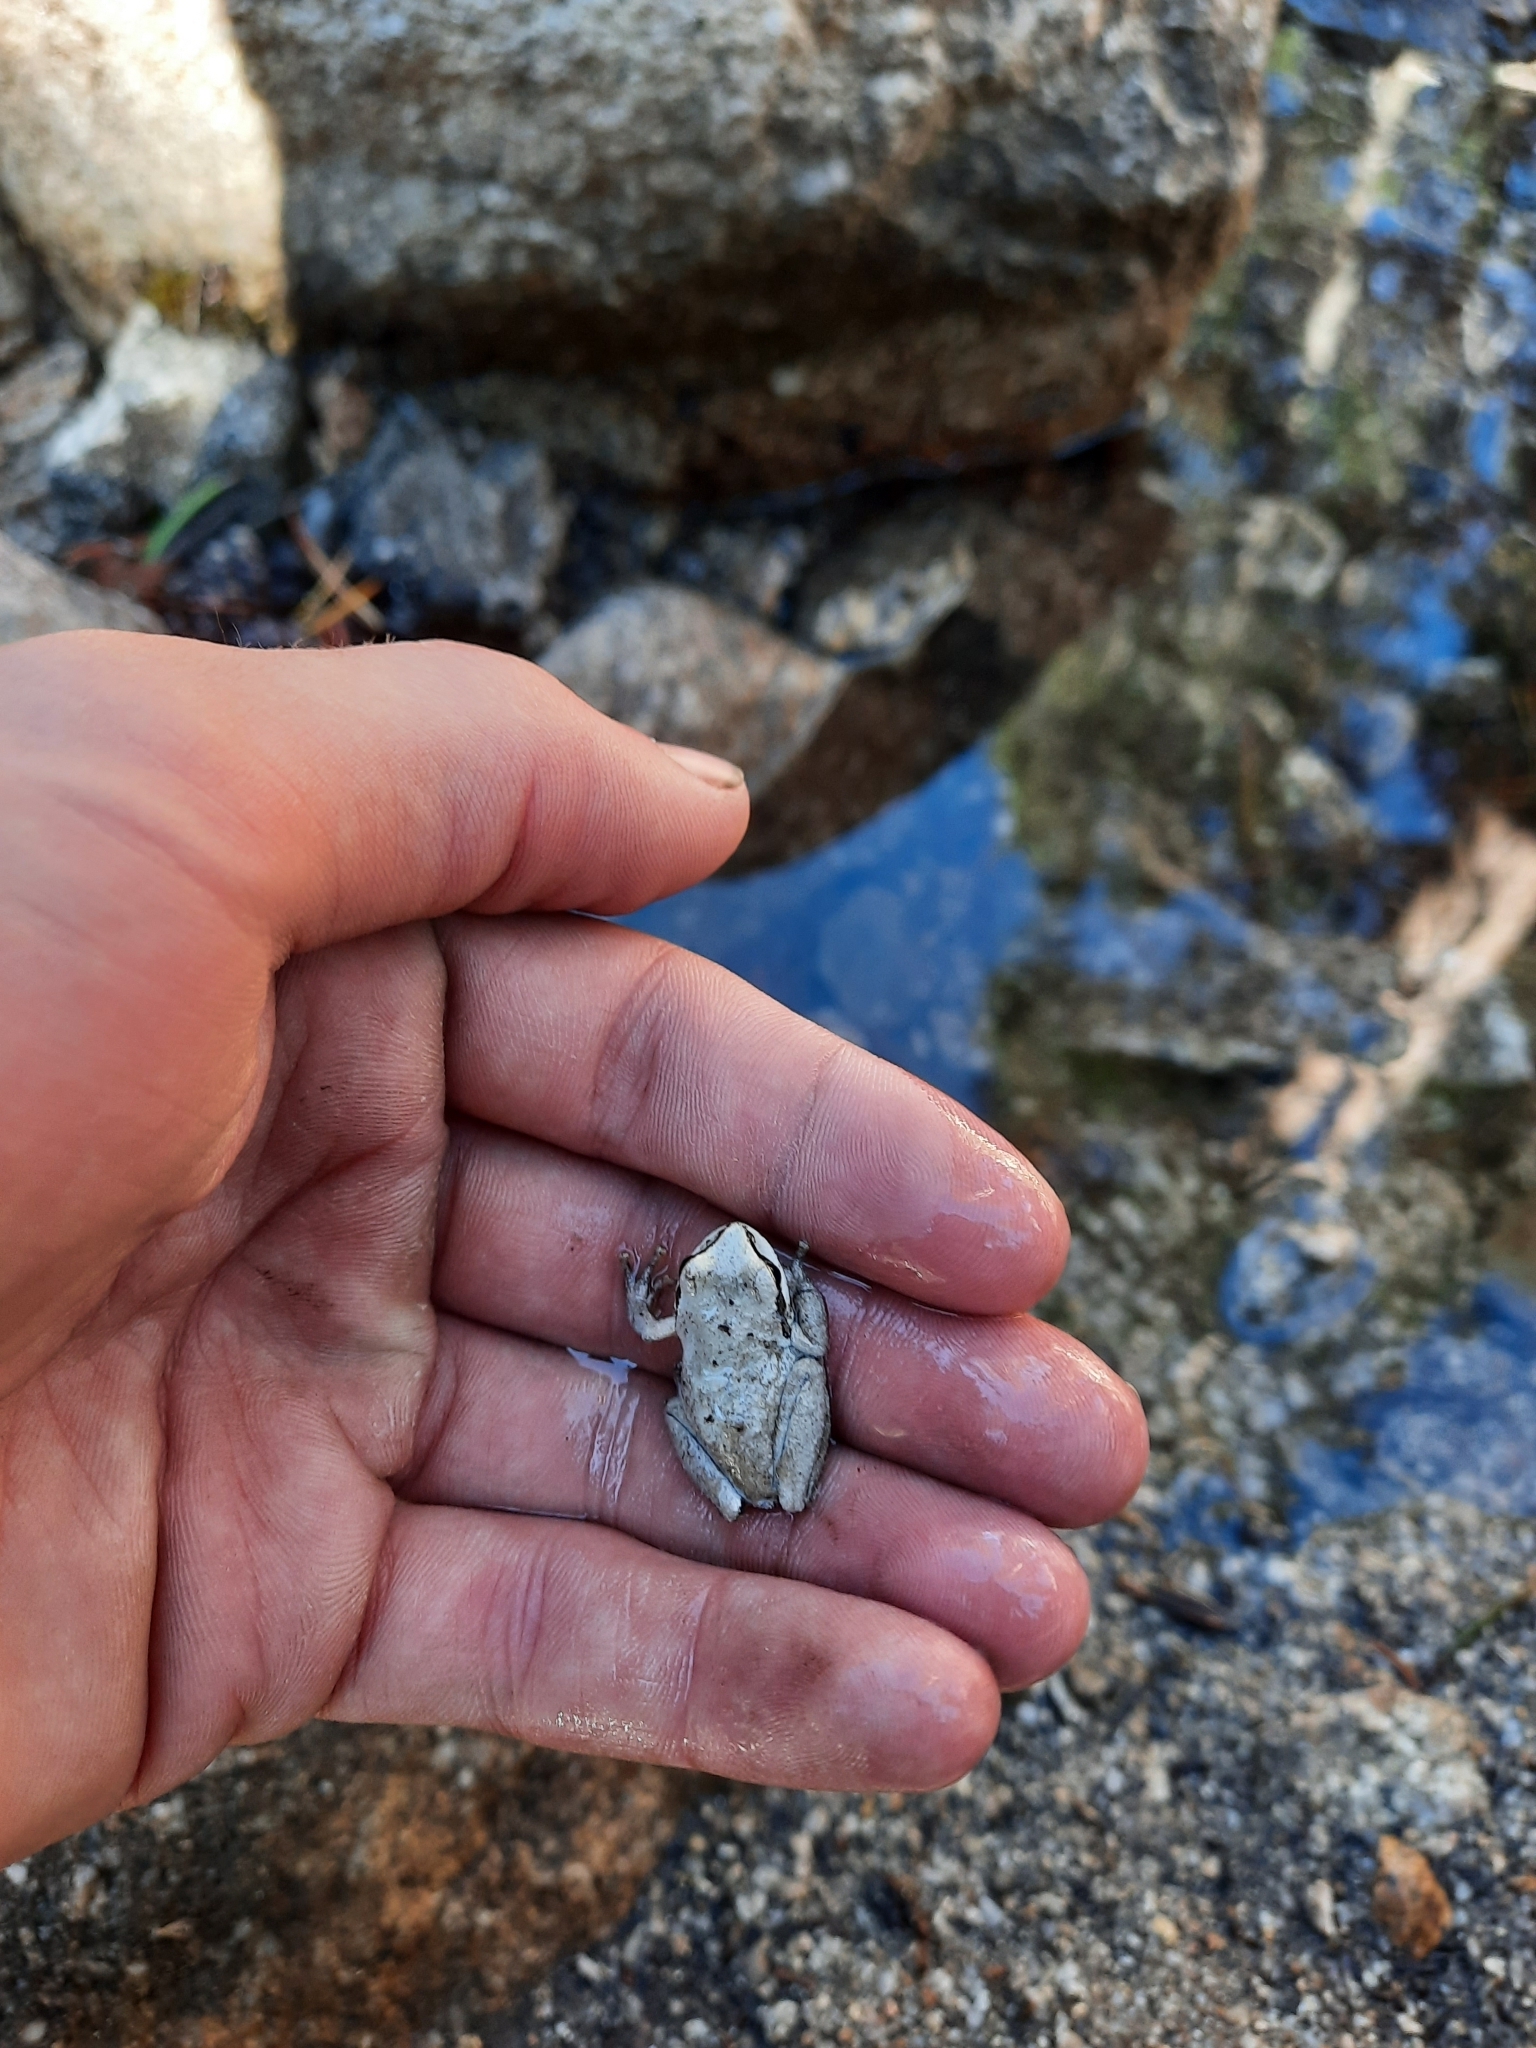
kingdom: Animalia
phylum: Chordata
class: Amphibia
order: Anura
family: Hylidae
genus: Pseudacris
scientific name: Pseudacris regilla
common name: Pacific chorus frog
